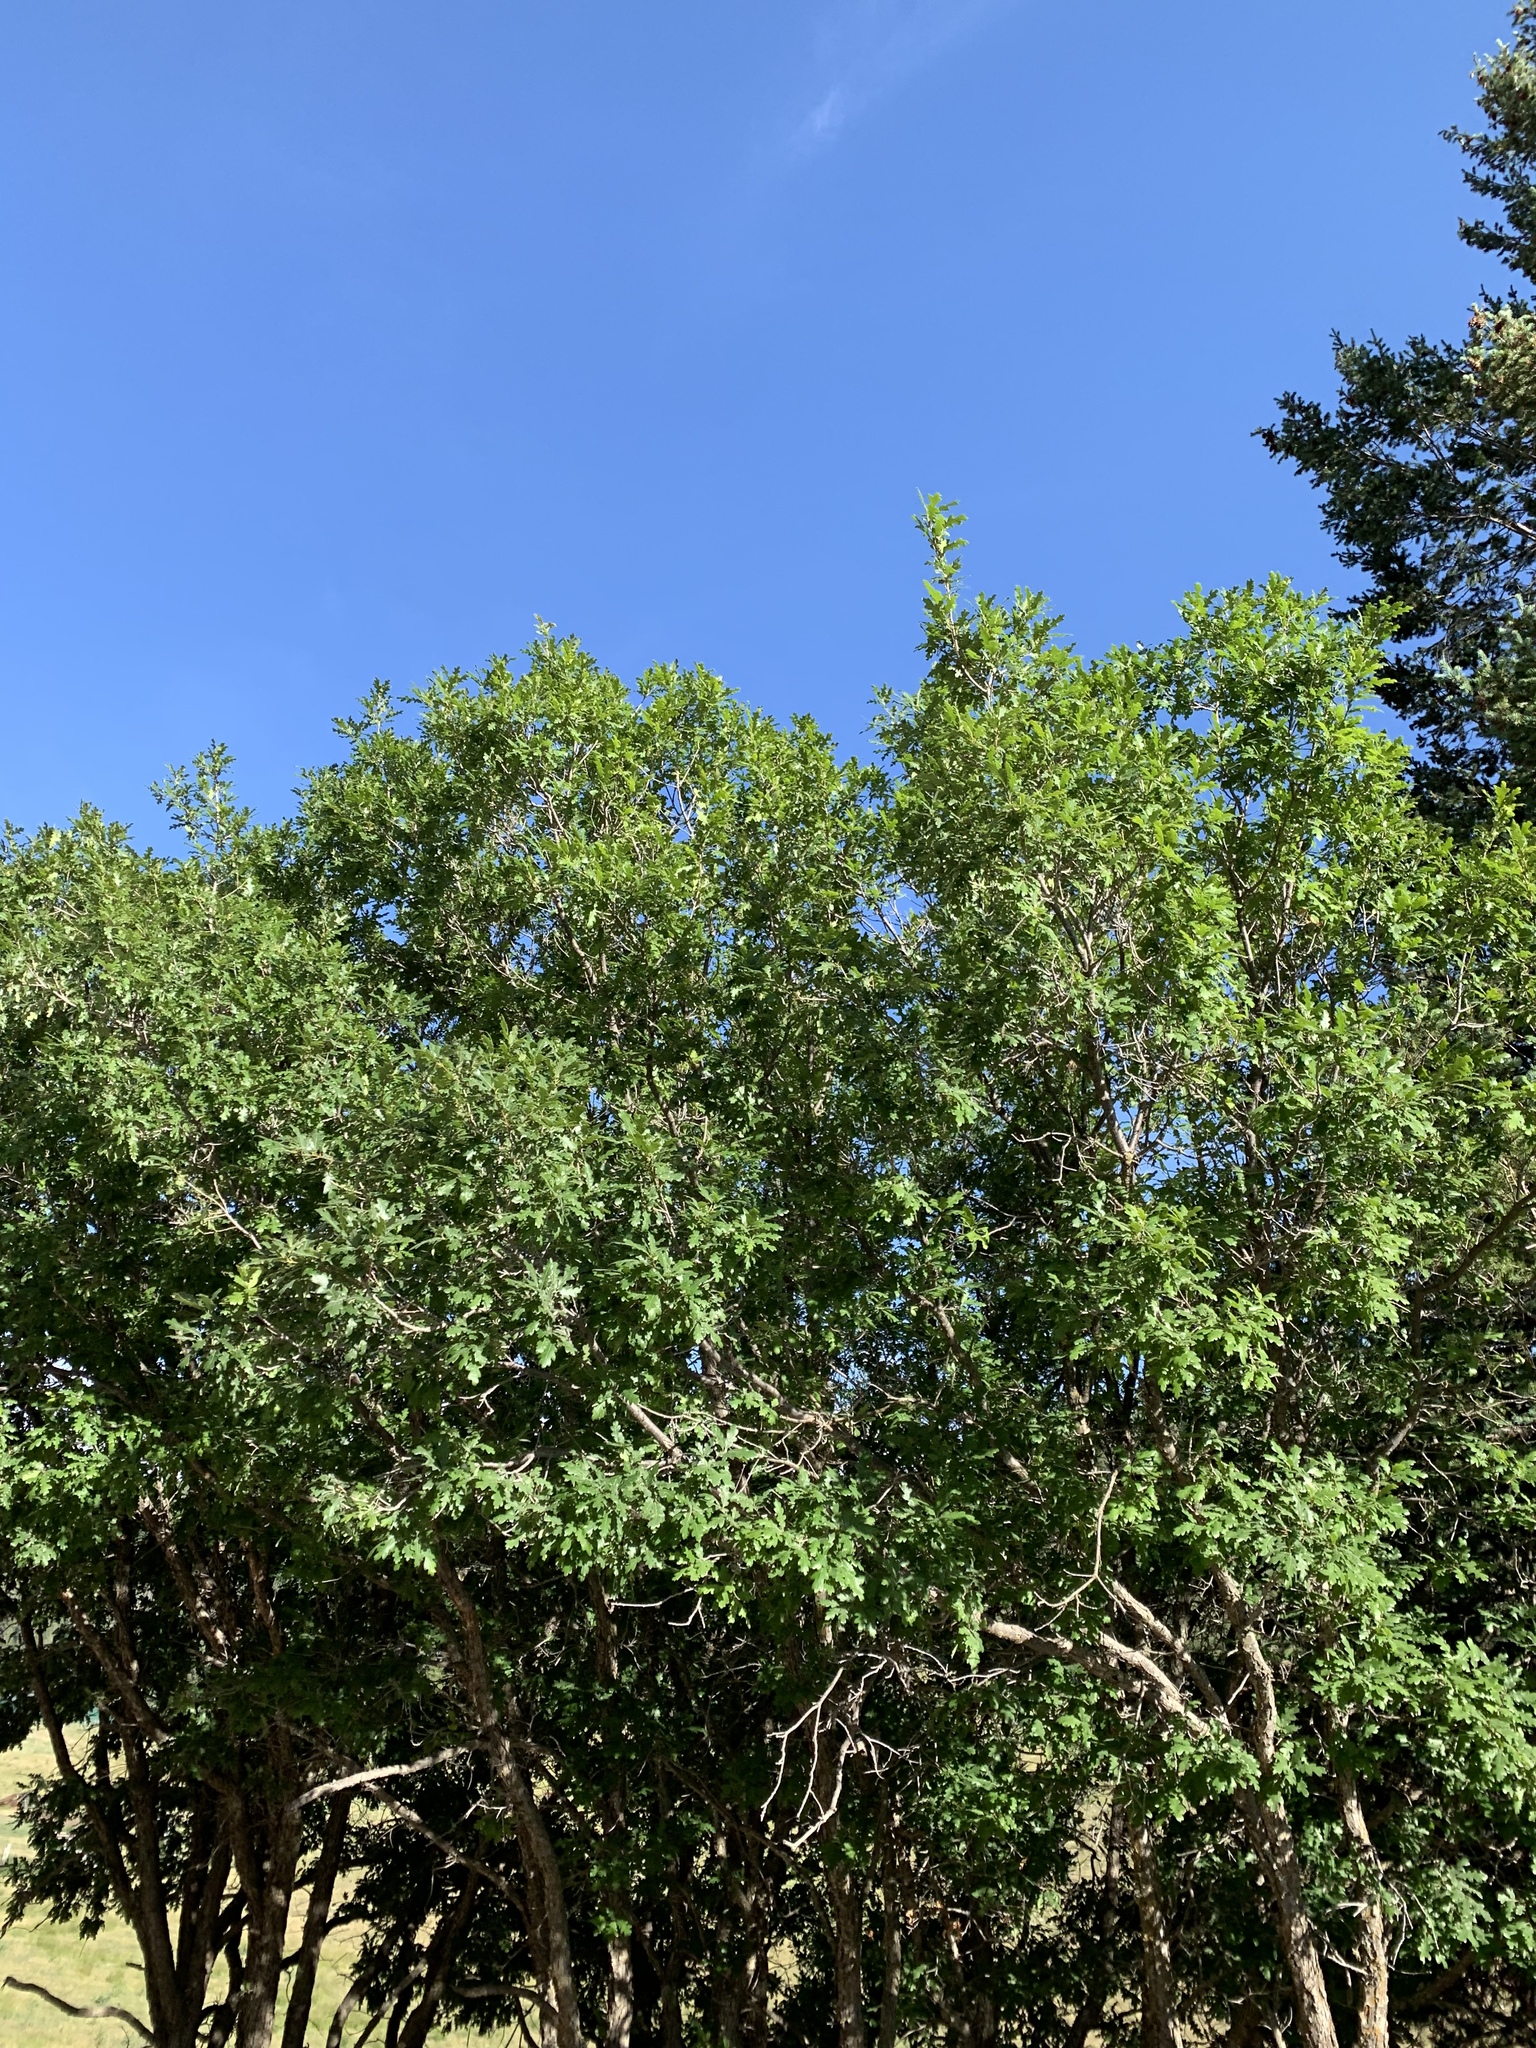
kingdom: Plantae
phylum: Tracheophyta
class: Magnoliopsida
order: Fagales
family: Fagaceae
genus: Quercus
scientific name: Quercus gambelii
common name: Gambel oak
